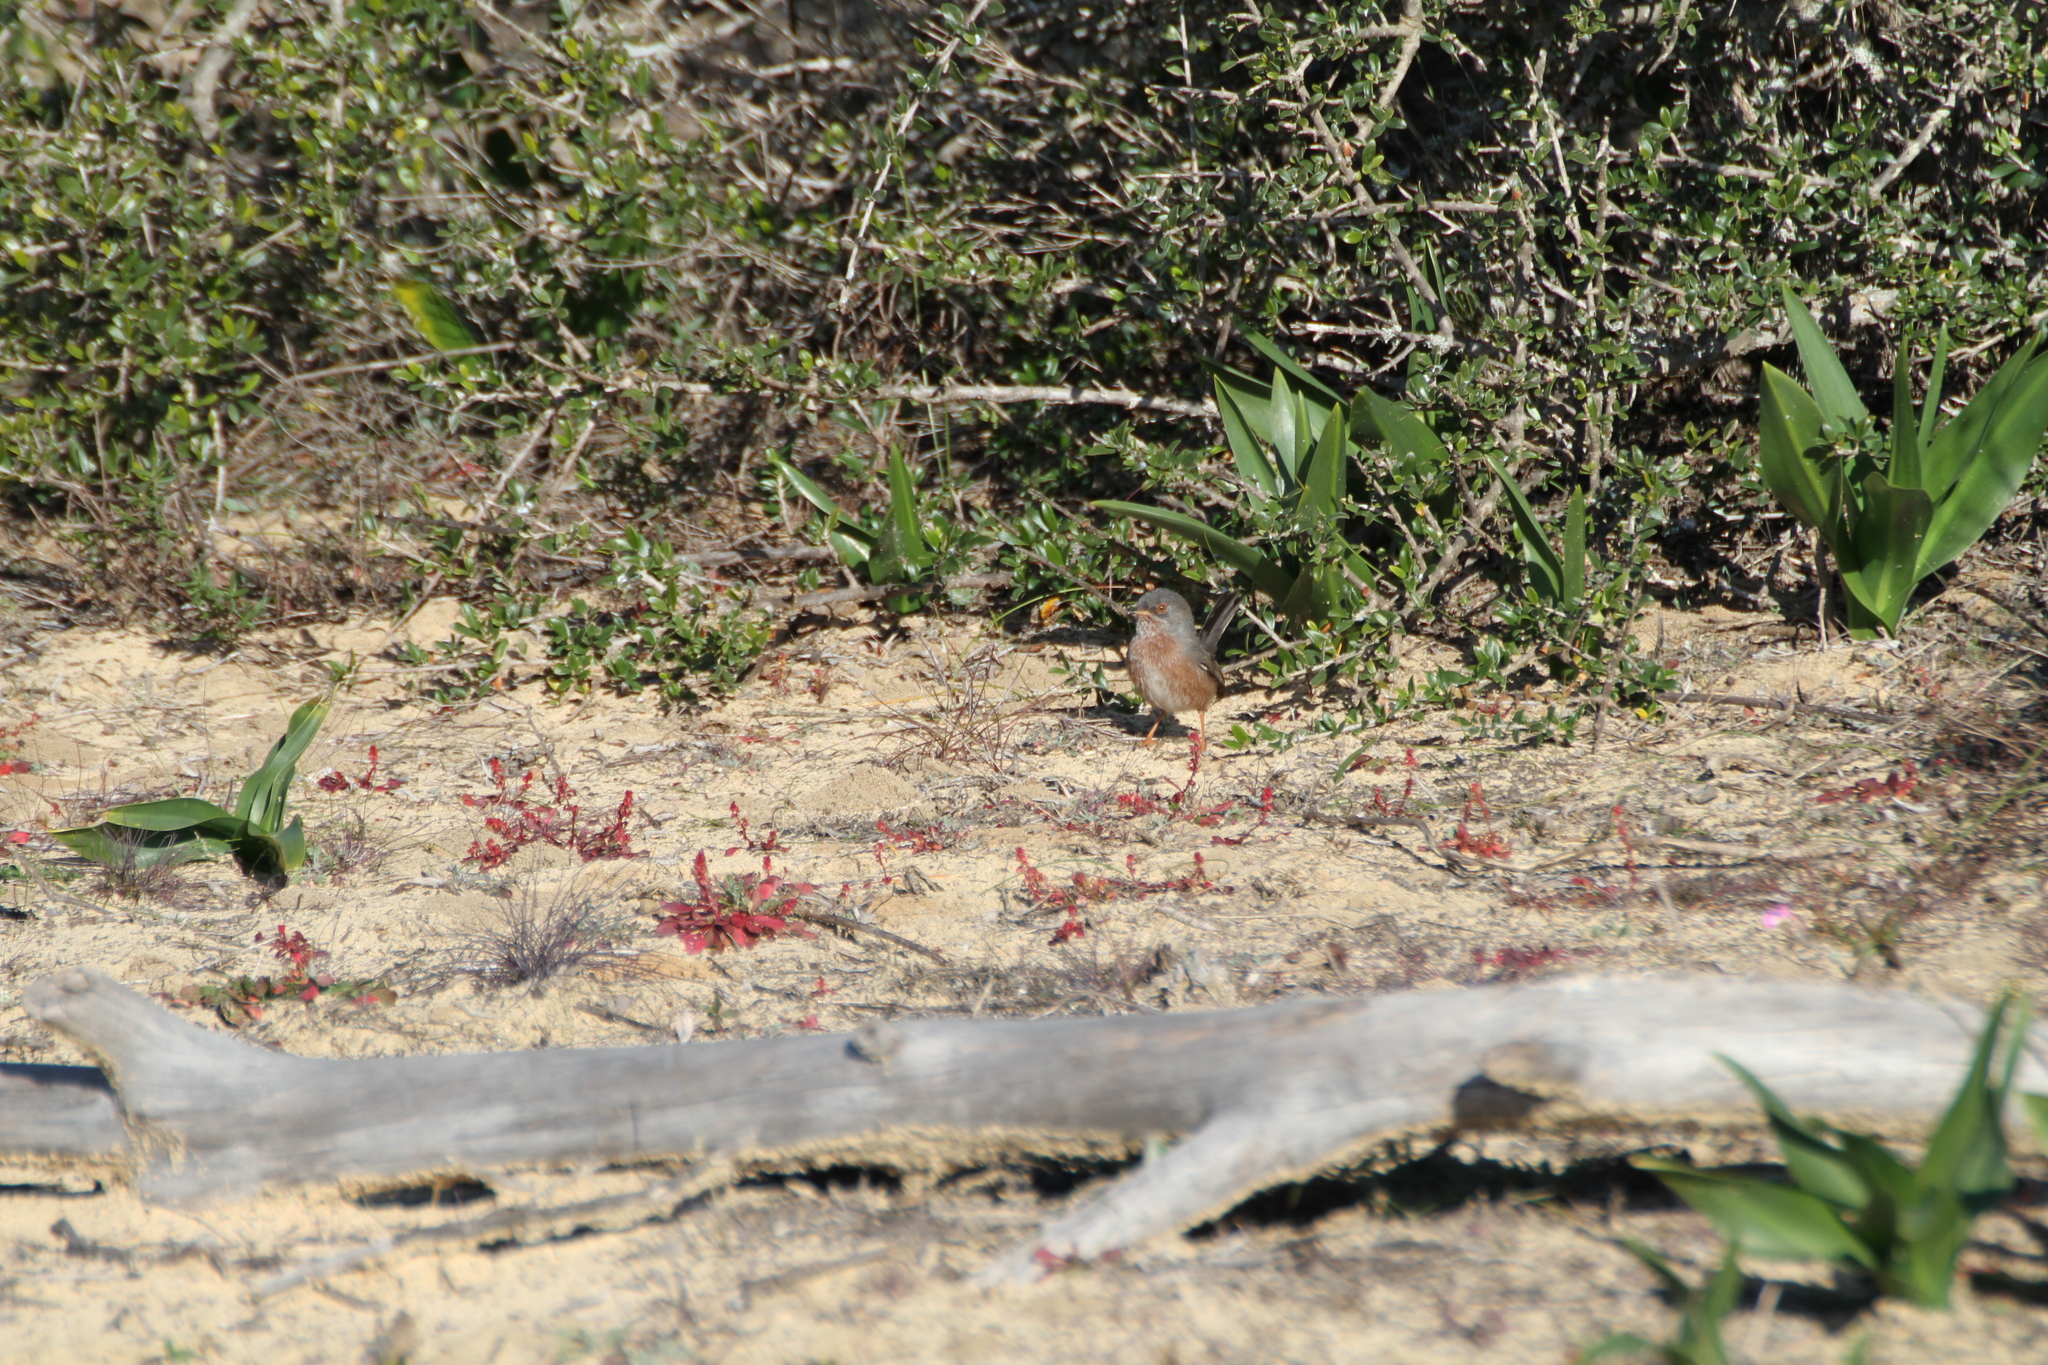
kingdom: Animalia
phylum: Chordata
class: Aves
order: Passeriformes
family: Sylviidae
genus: Sylvia
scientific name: Sylvia undata
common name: Dartford warbler
